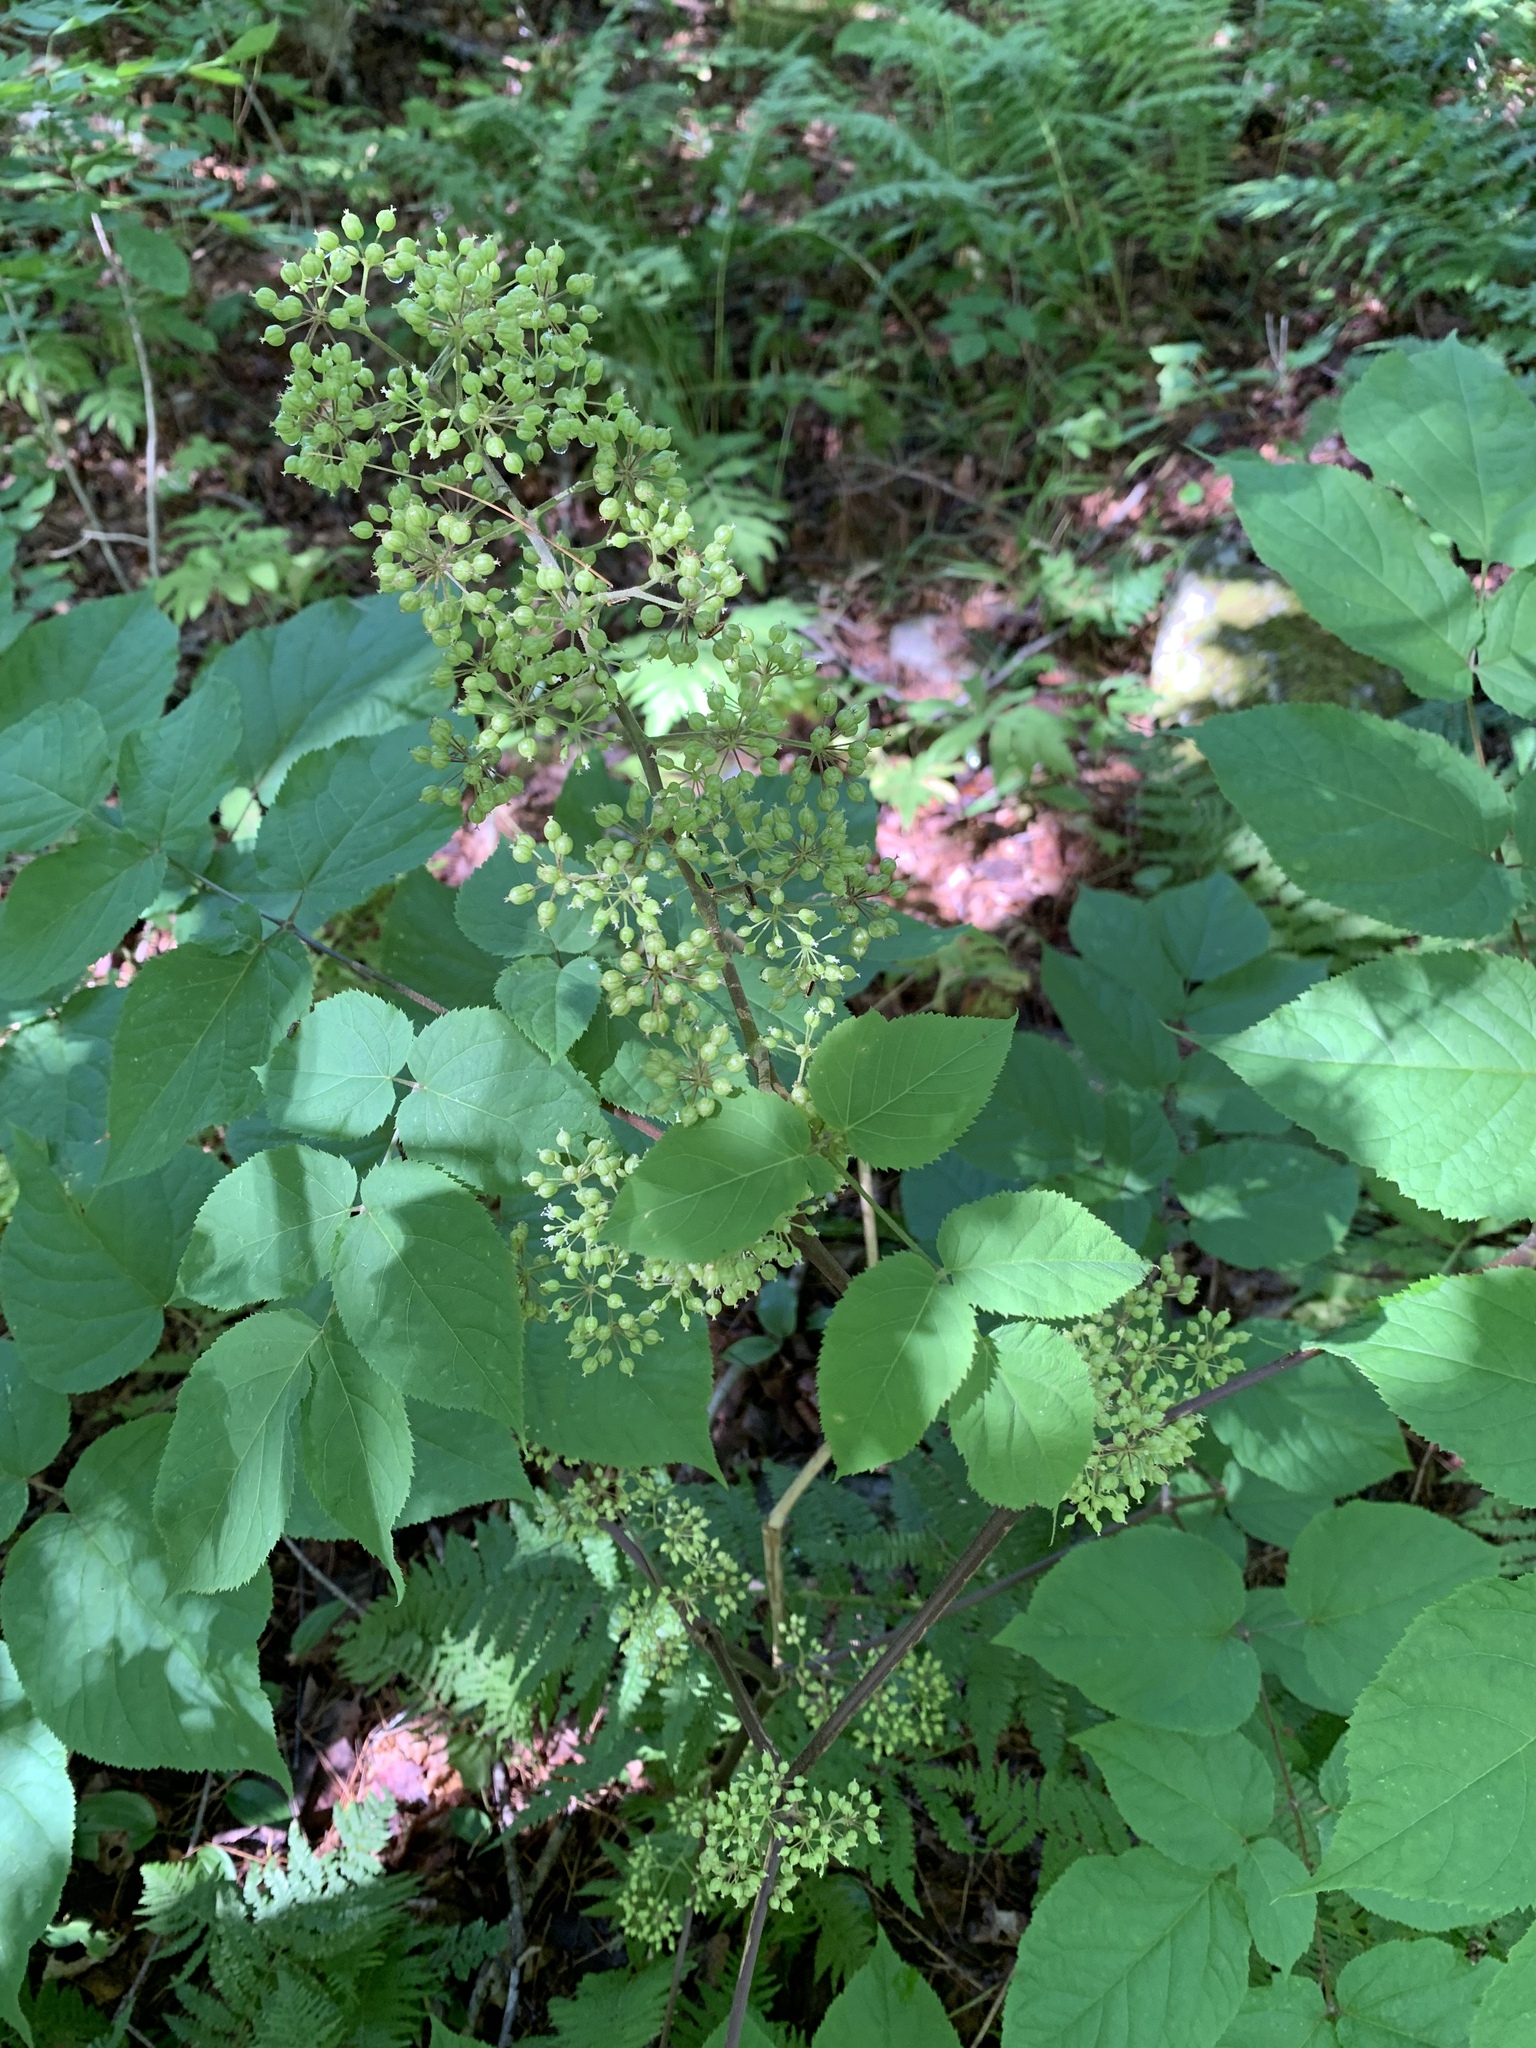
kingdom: Plantae
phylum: Tracheophyta
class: Magnoliopsida
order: Apiales
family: Araliaceae
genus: Aralia
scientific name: Aralia racemosa
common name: American-spikenard
